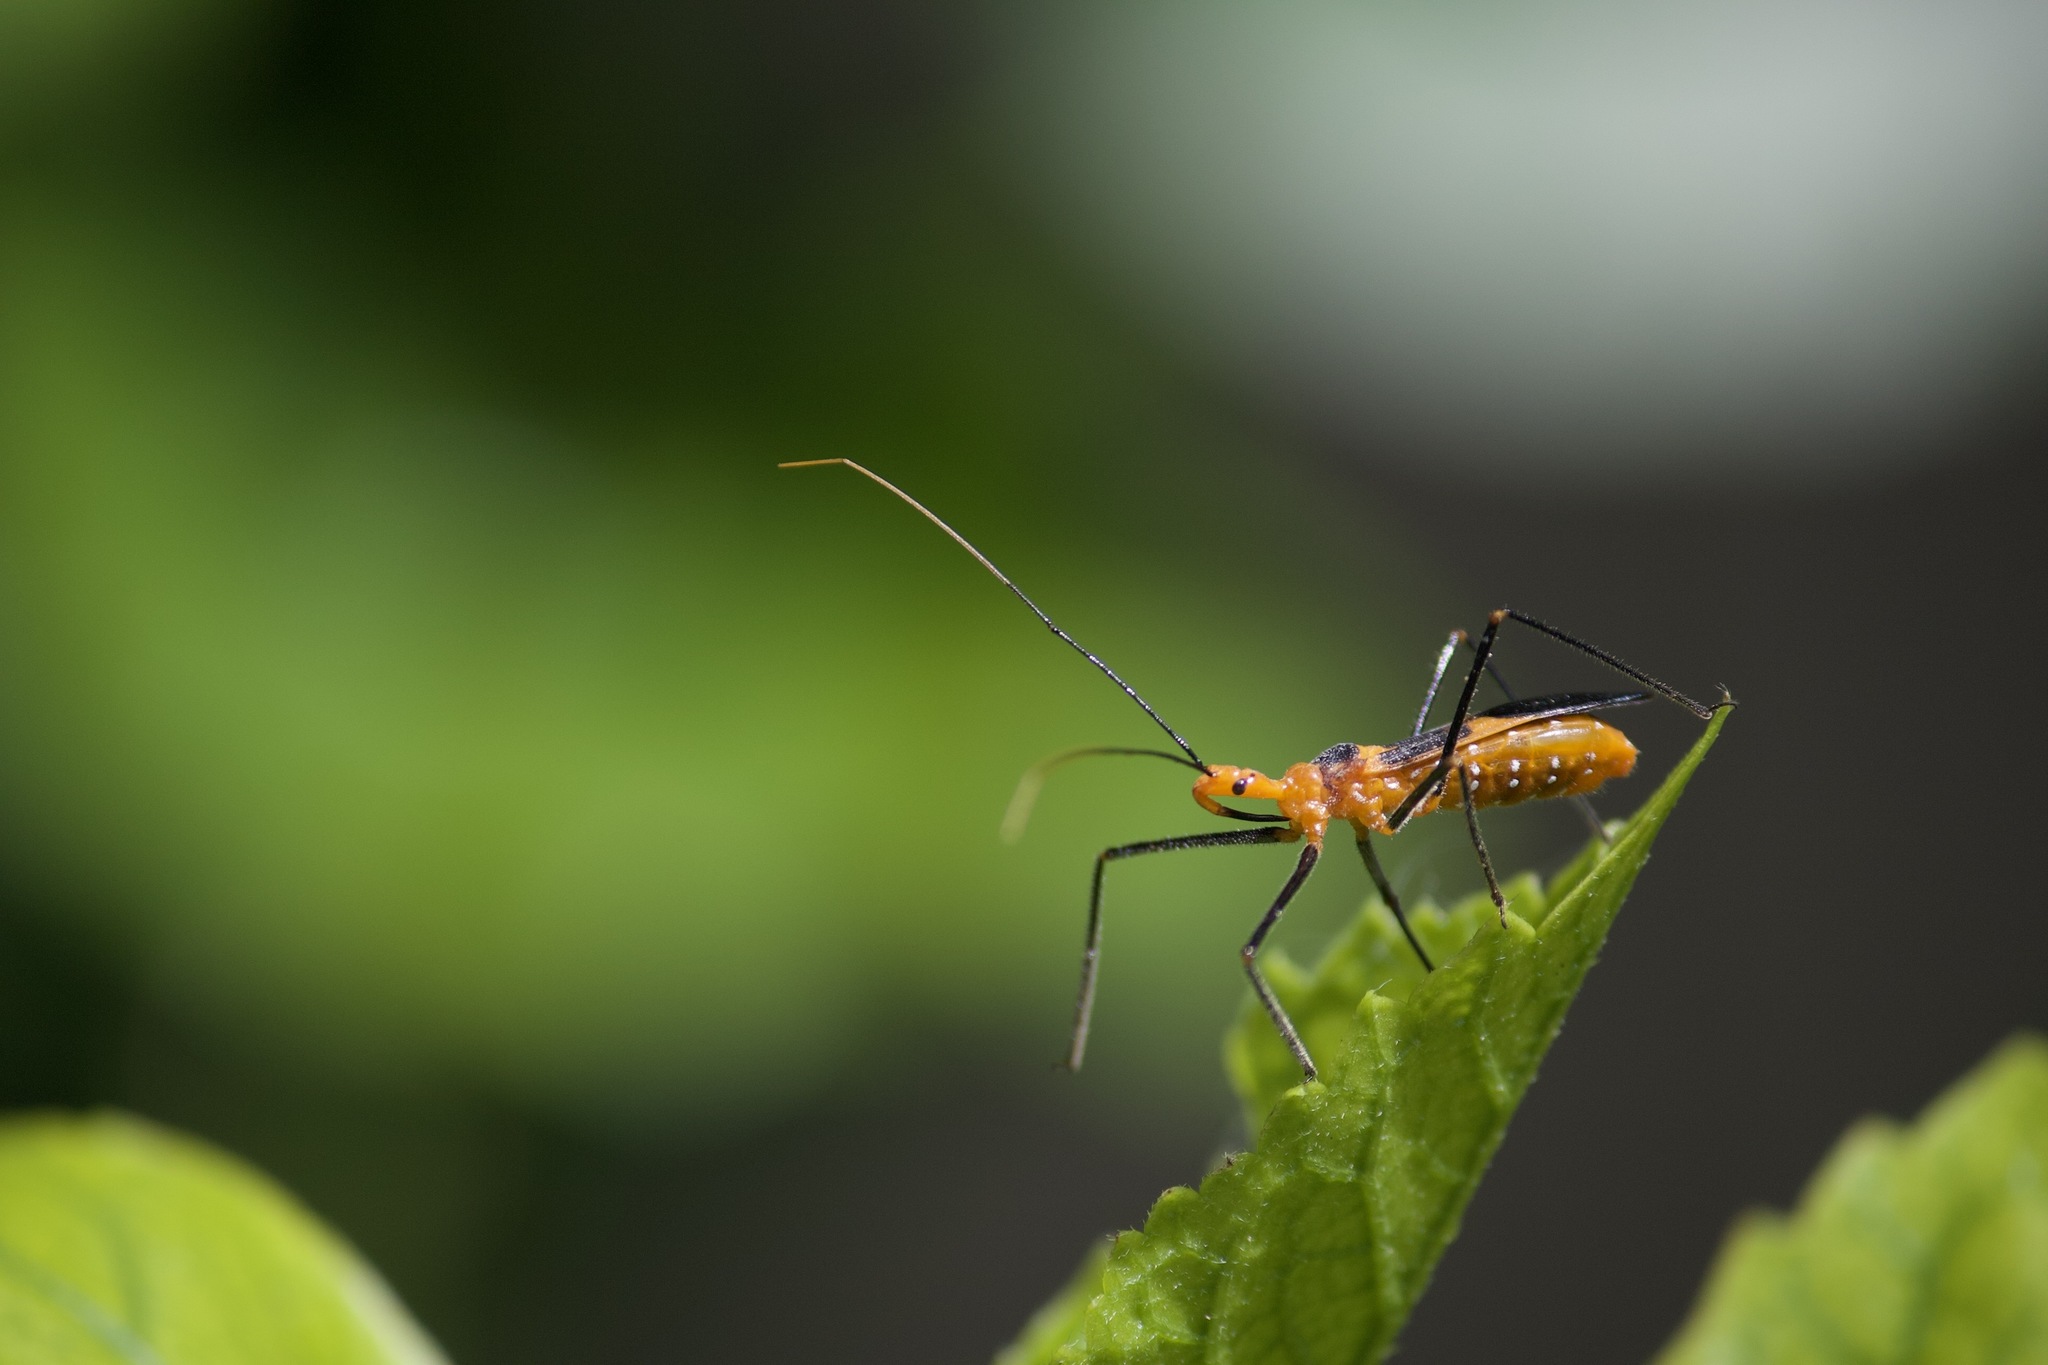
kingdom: Animalia
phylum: Arthropoda
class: Insecta
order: Hemiptera
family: Reduviidae
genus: Zelus
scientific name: Zelus longipes
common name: Milkweed assassin bug
